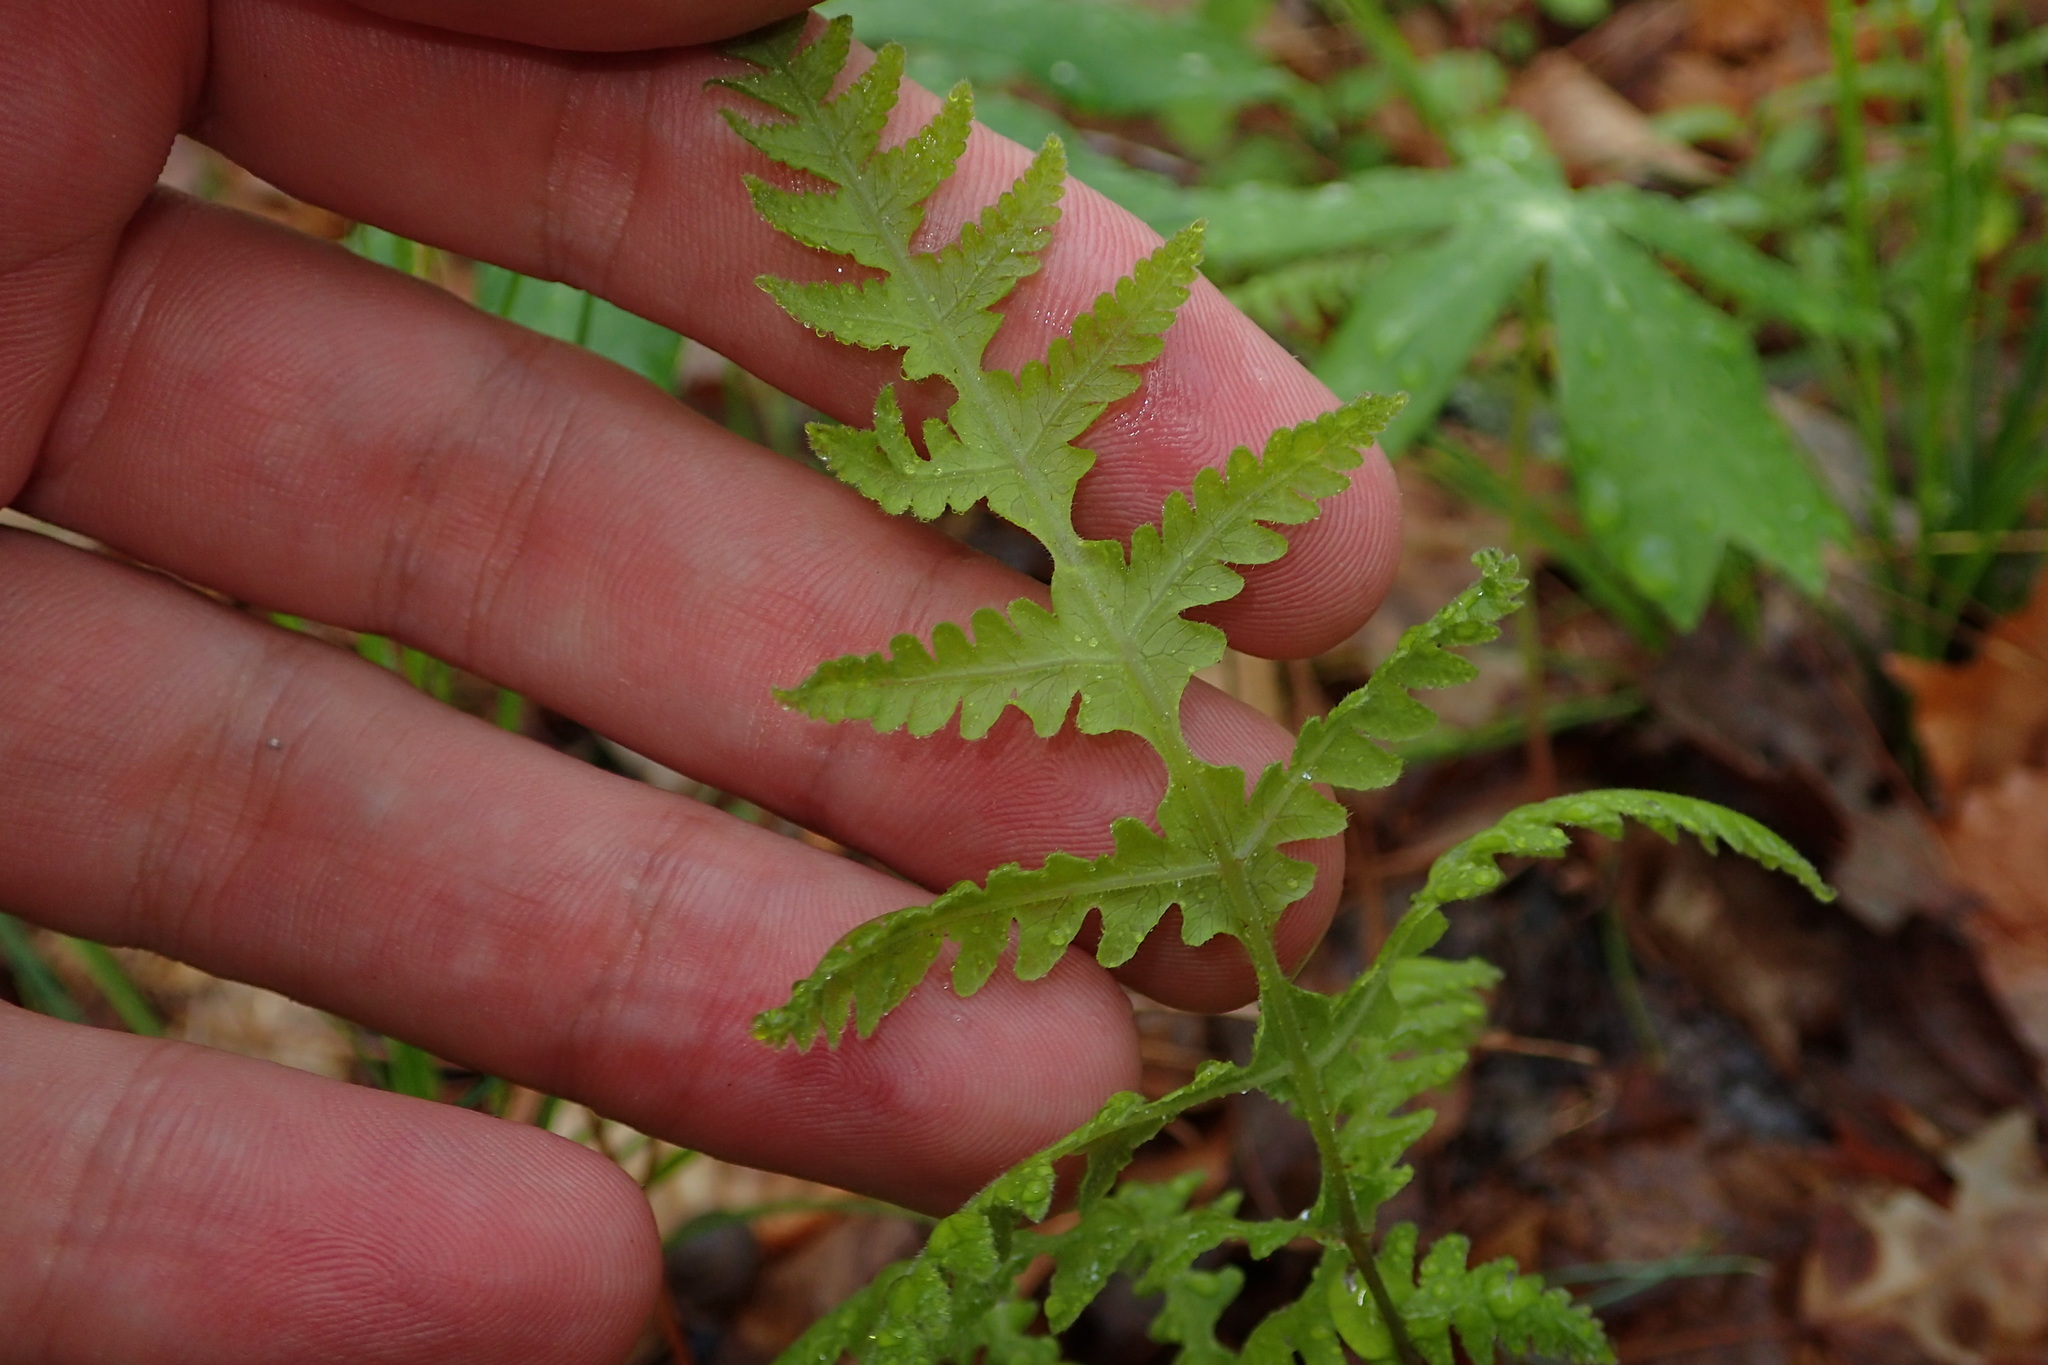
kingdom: Plantae
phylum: Tracheophyta
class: Polypodiopsida
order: Polypodiales
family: Thelypteridaceae
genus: Phegopteris
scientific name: Phegopteris hexagonoptera
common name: Broad beech fern
